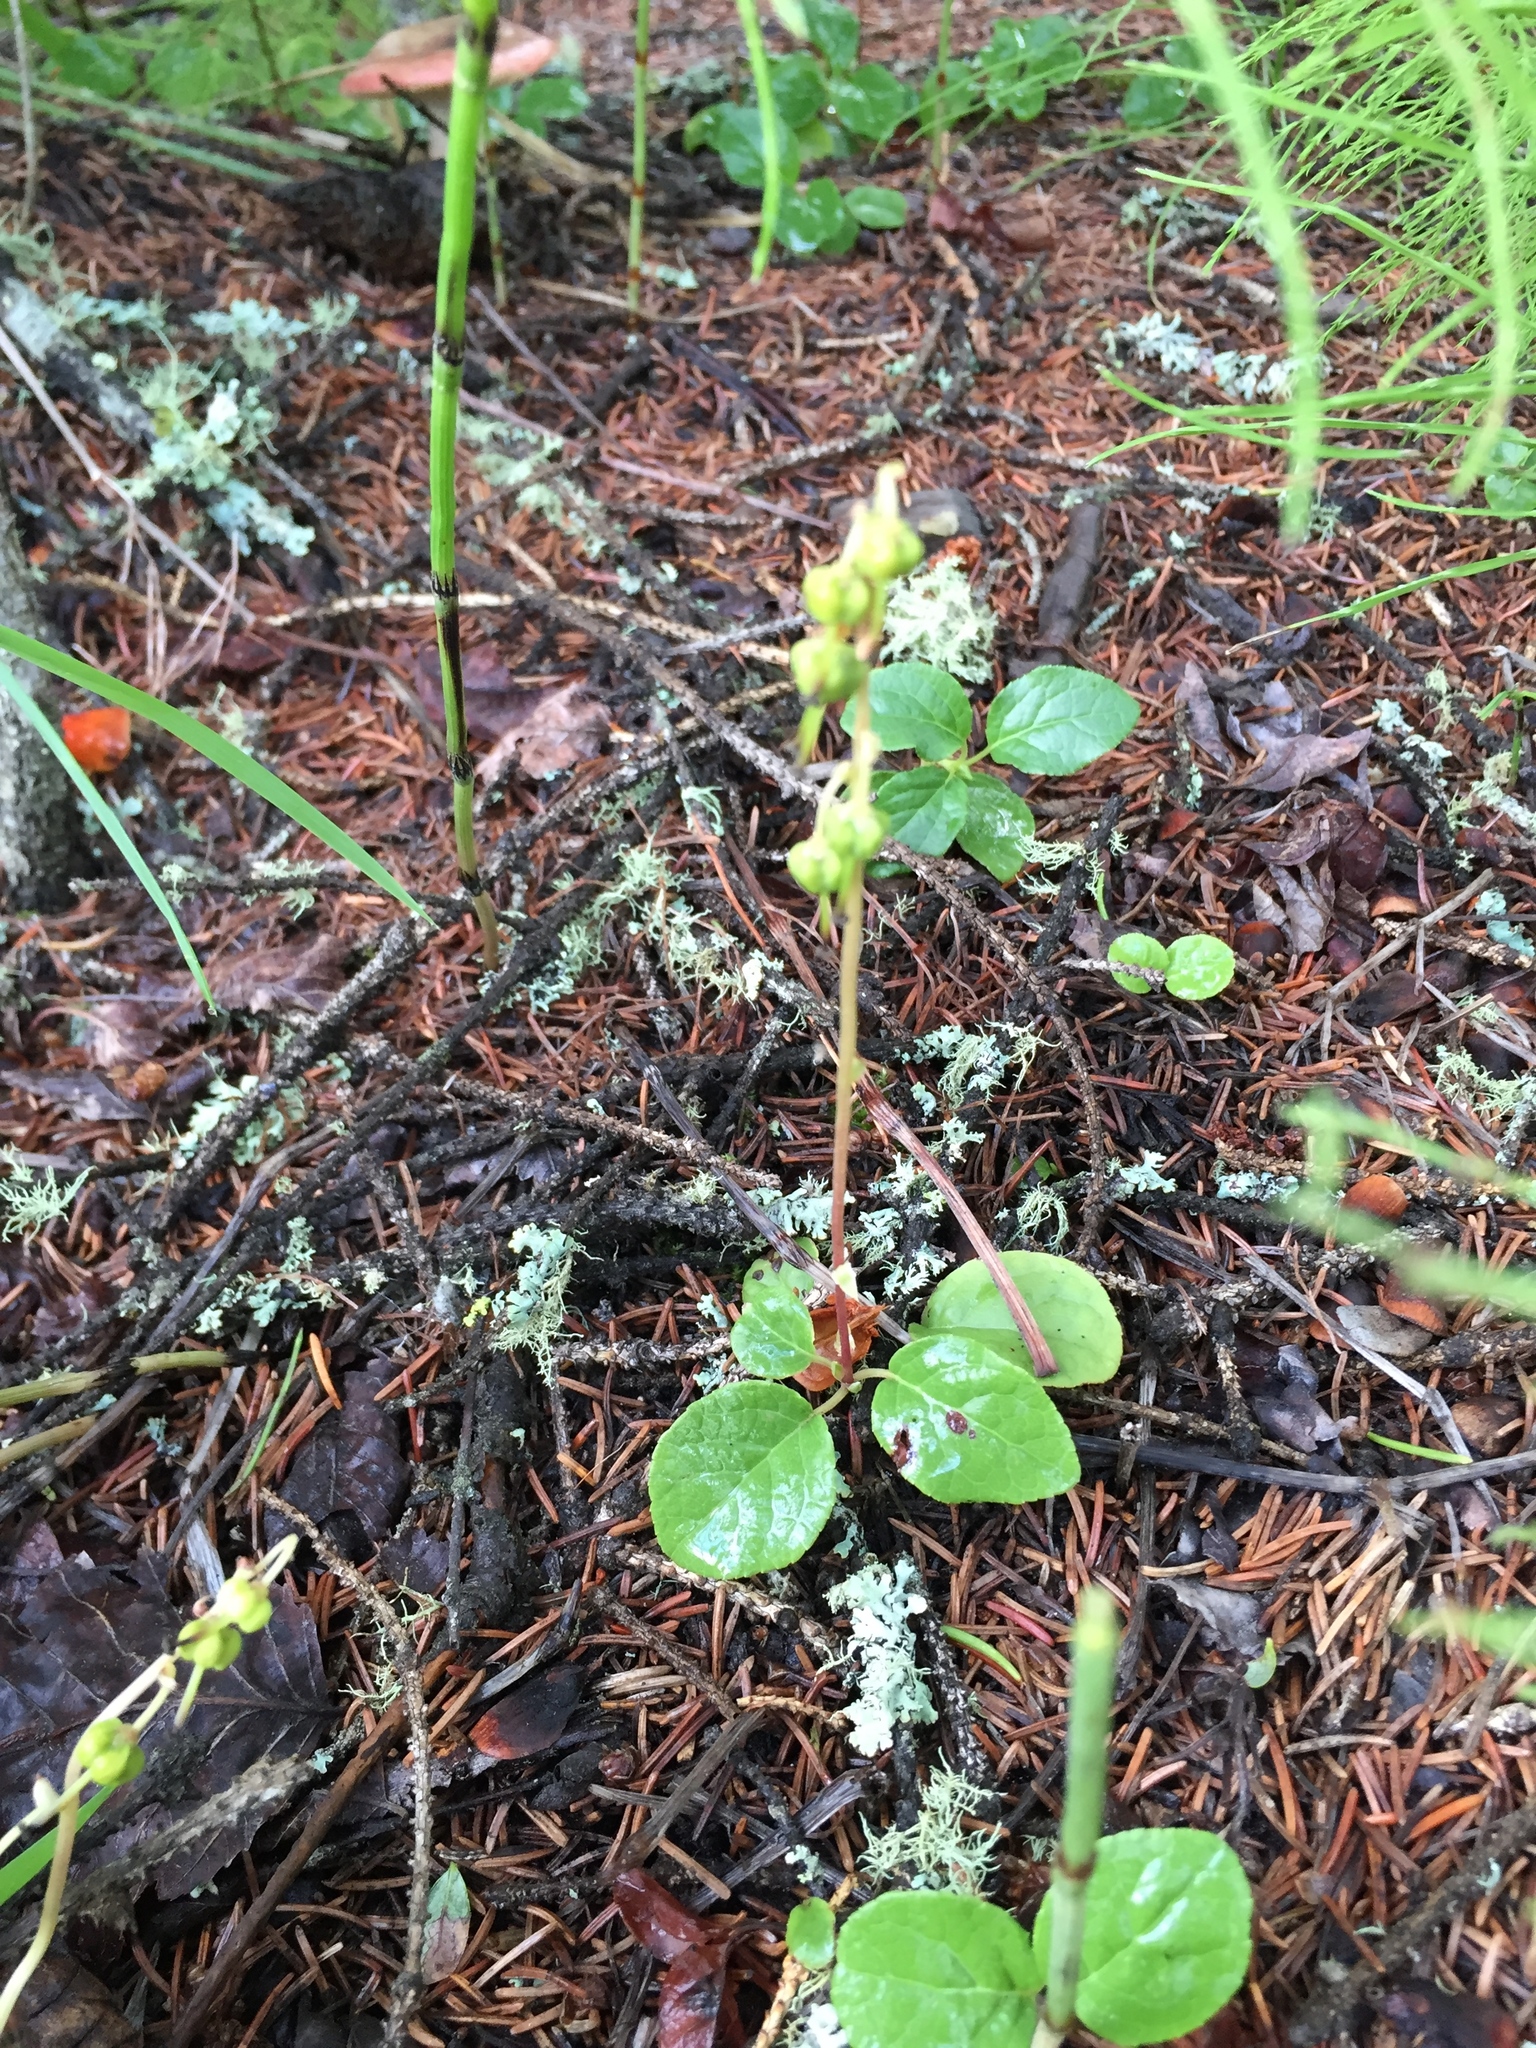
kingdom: Plantae
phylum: Tracheophyta
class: Magnoliopsida
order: Ericales
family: Ericaceae
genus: Orthilia
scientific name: Orthilia secunda
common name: One-sided orthilia
